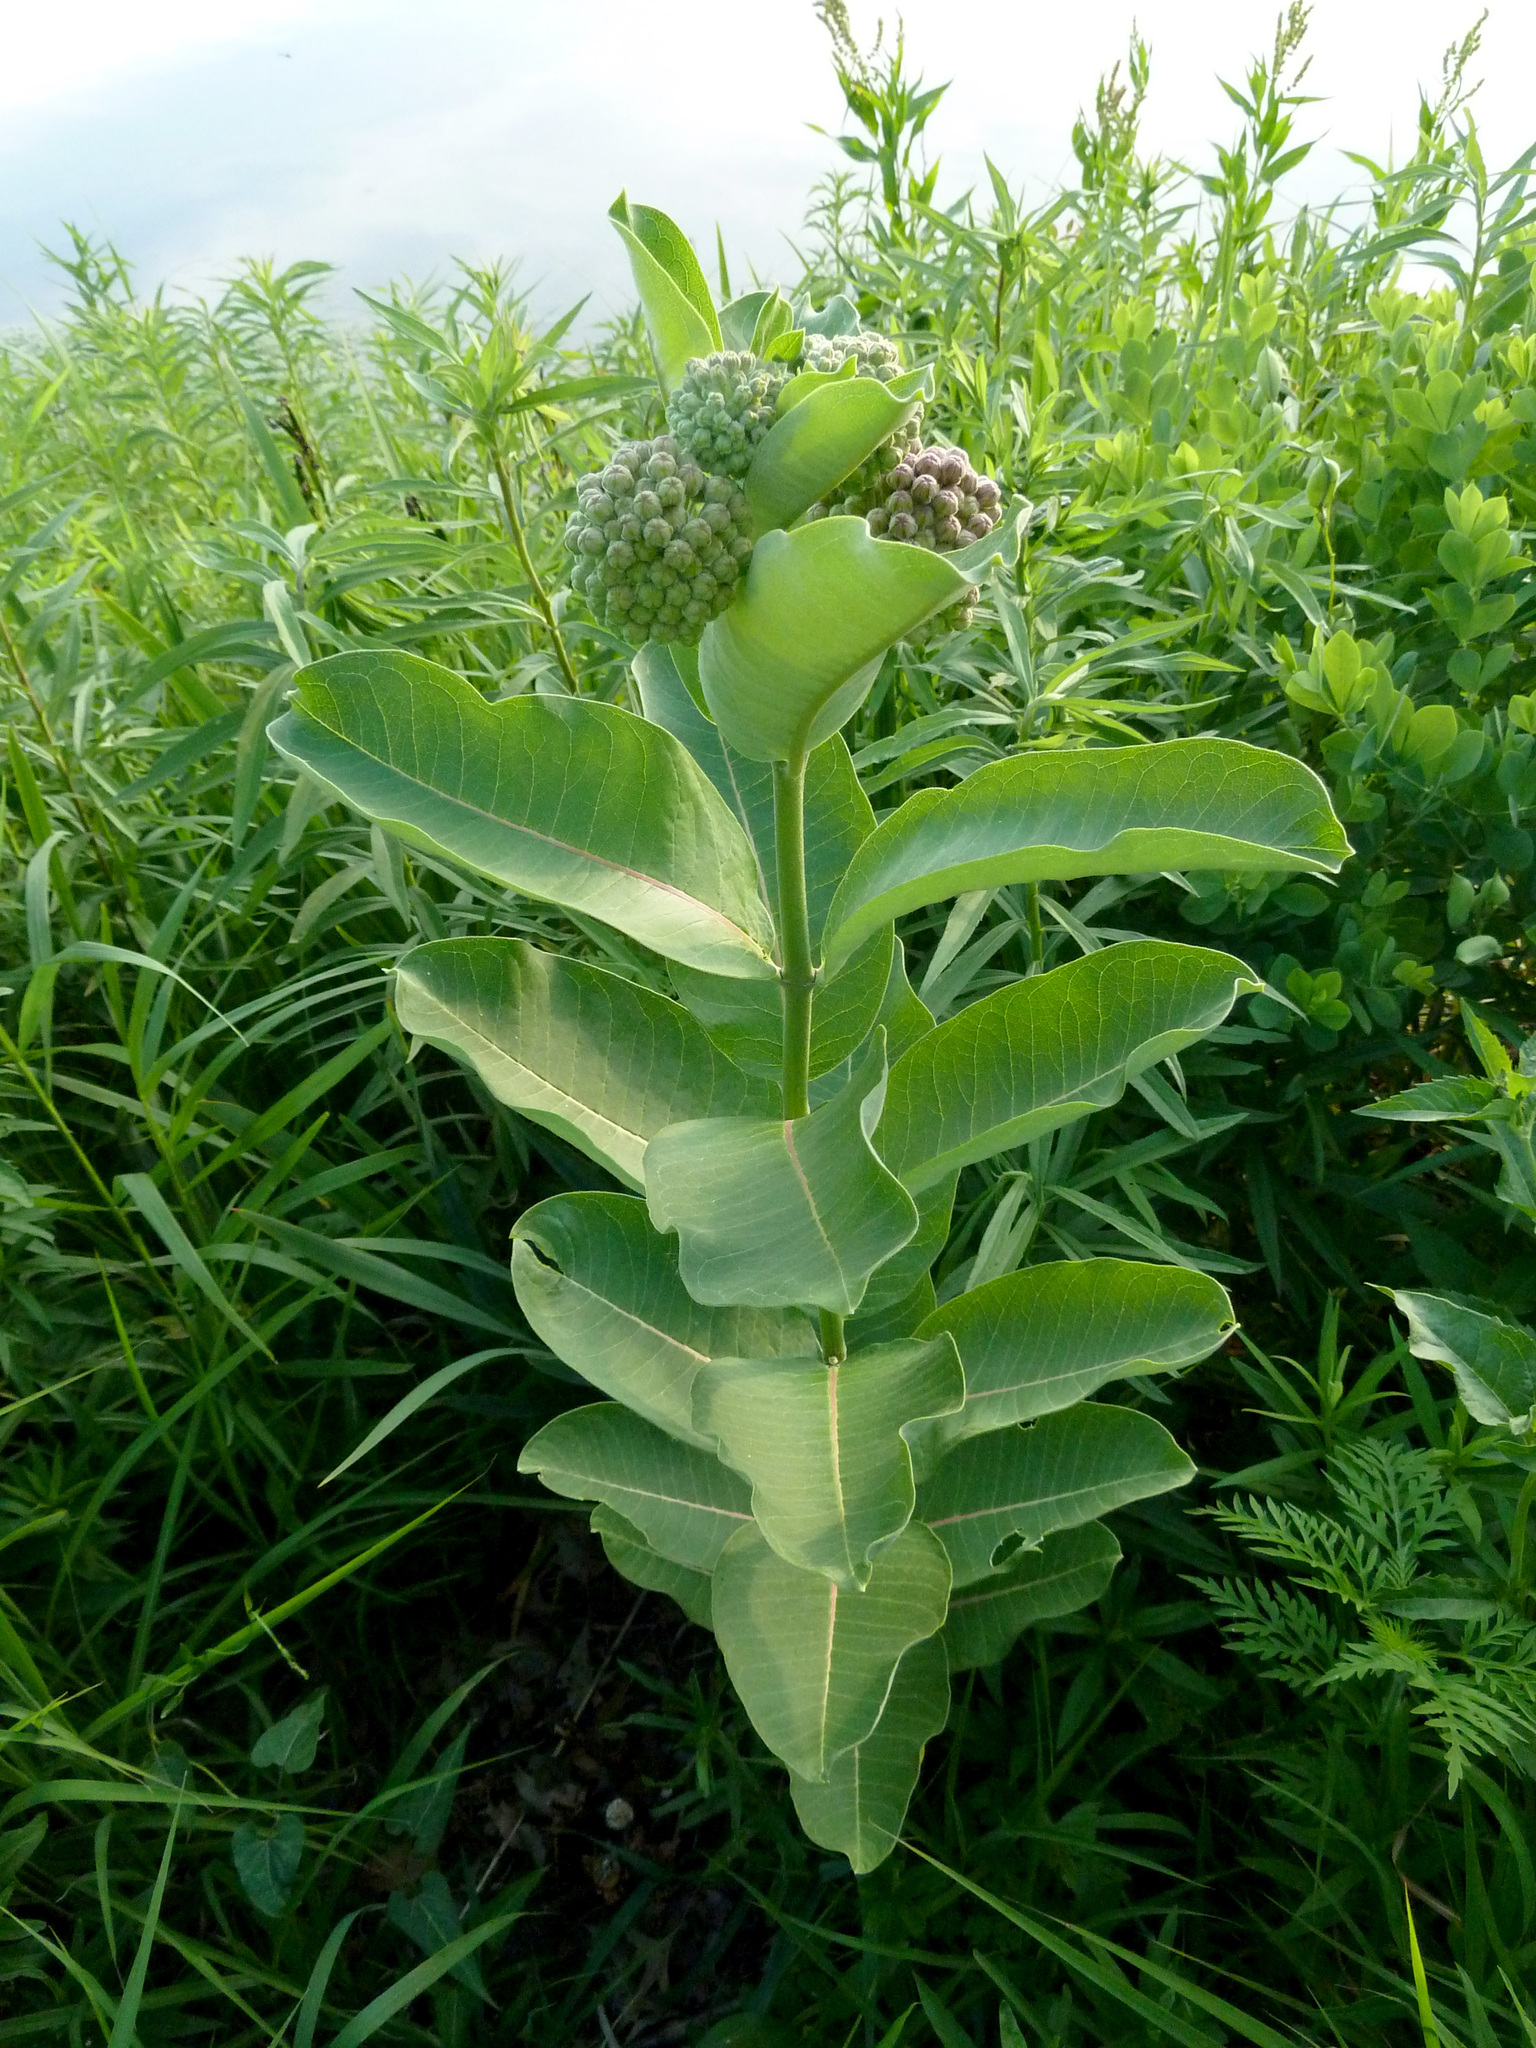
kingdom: Plantae
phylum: Tracheophyta
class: Magnoliopsida
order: Gentianales
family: Apocynaceae
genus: Asclepias
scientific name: Asclepias syriaca
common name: Common milkweed
